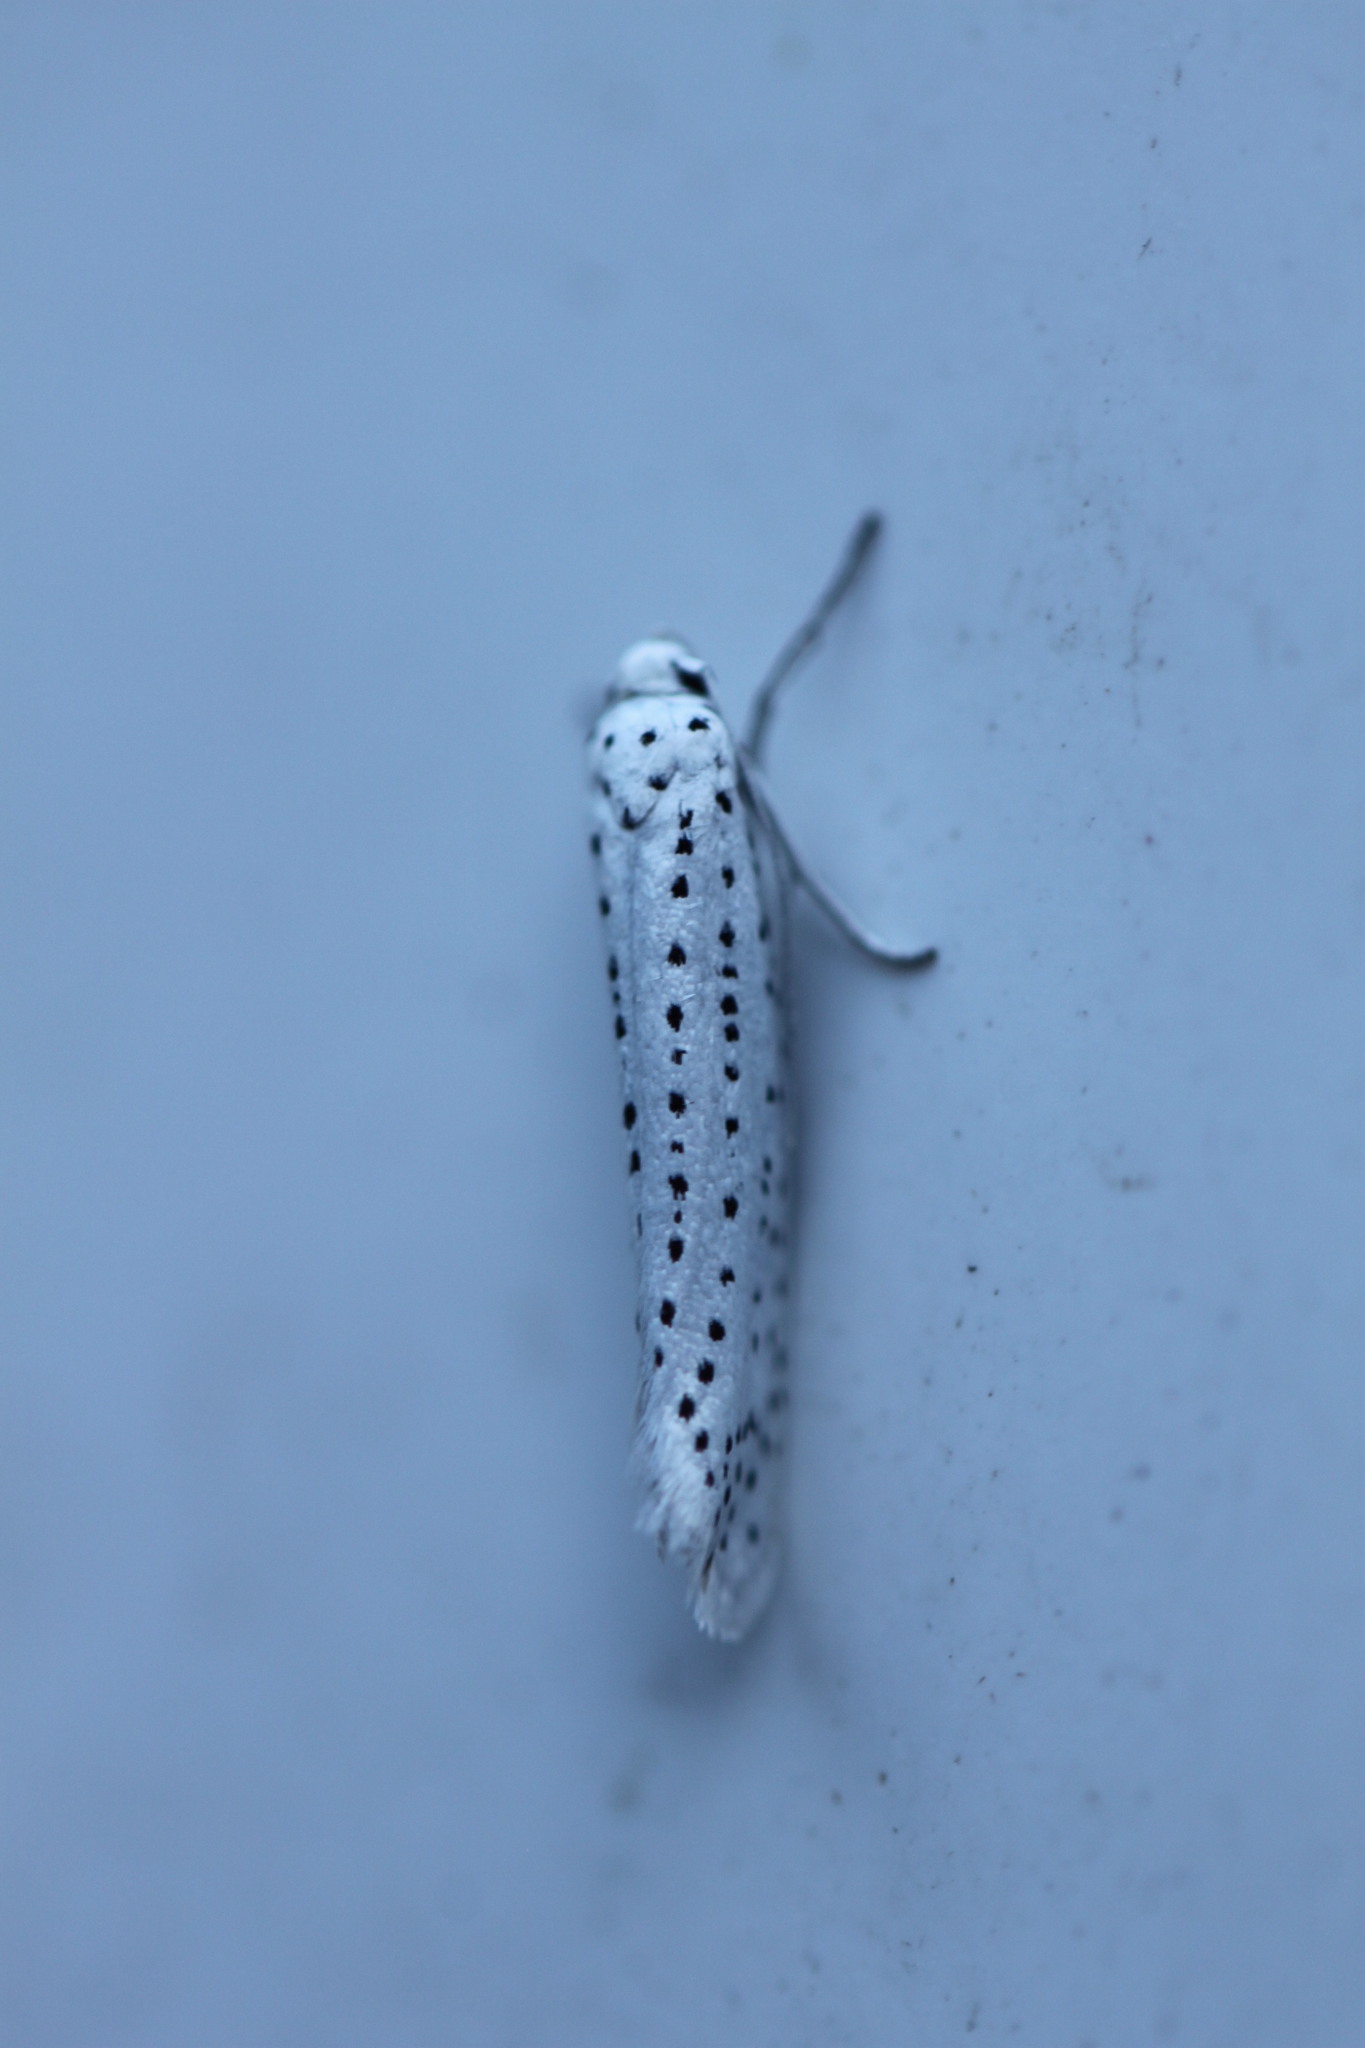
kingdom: Animalia
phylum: Arthropoda
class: Insecta
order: Lepidoptera
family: Yponomeutidae
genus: Yponomeuta
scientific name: Yponomeuta evonymella
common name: Bird-cherry ermine
